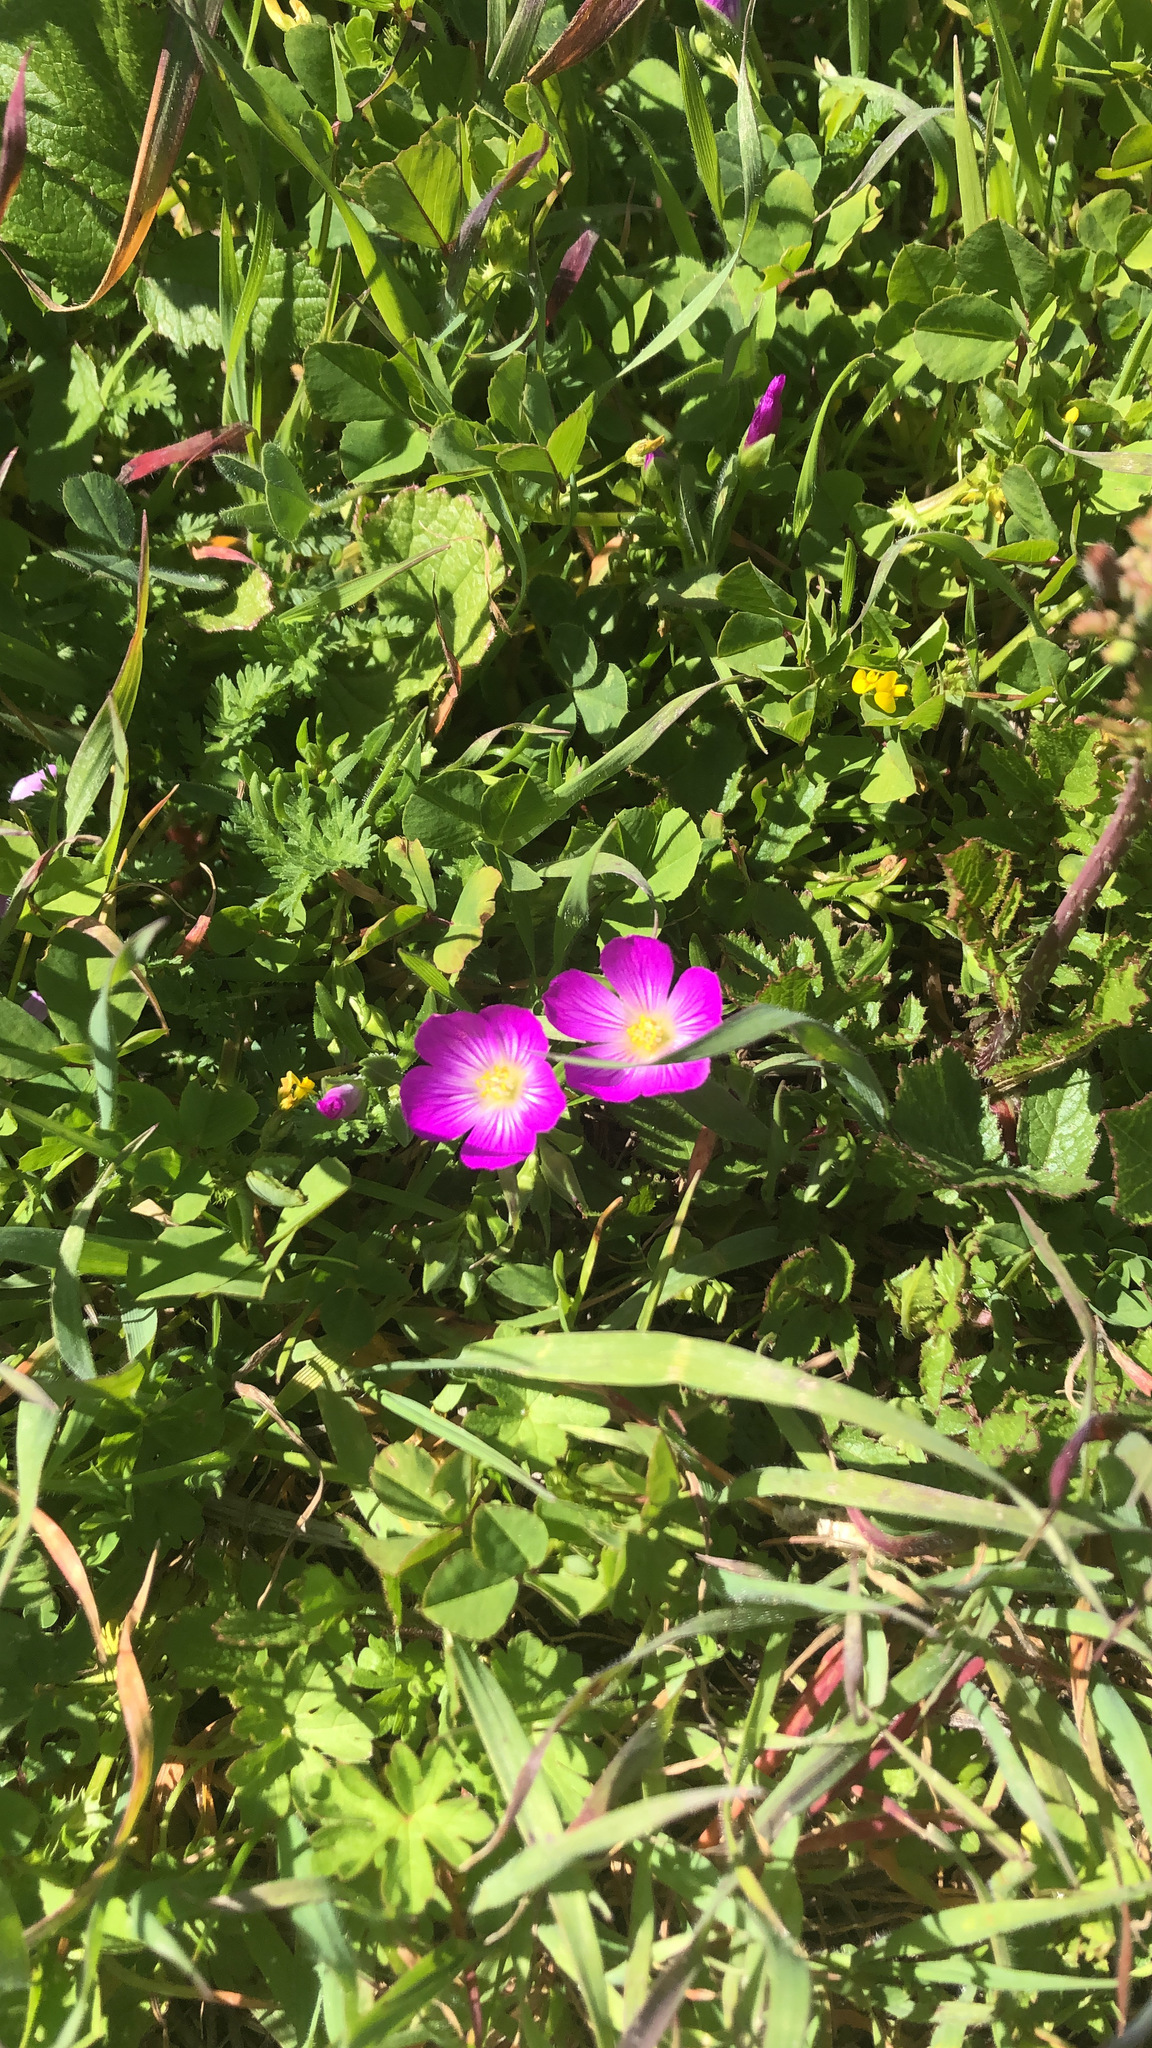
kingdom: Plantae
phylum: Tracheophyta
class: Magnoliopsida
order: Caryophyllales
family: Montiaceae
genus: Calandrinia
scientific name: Calandrinia menziesii
